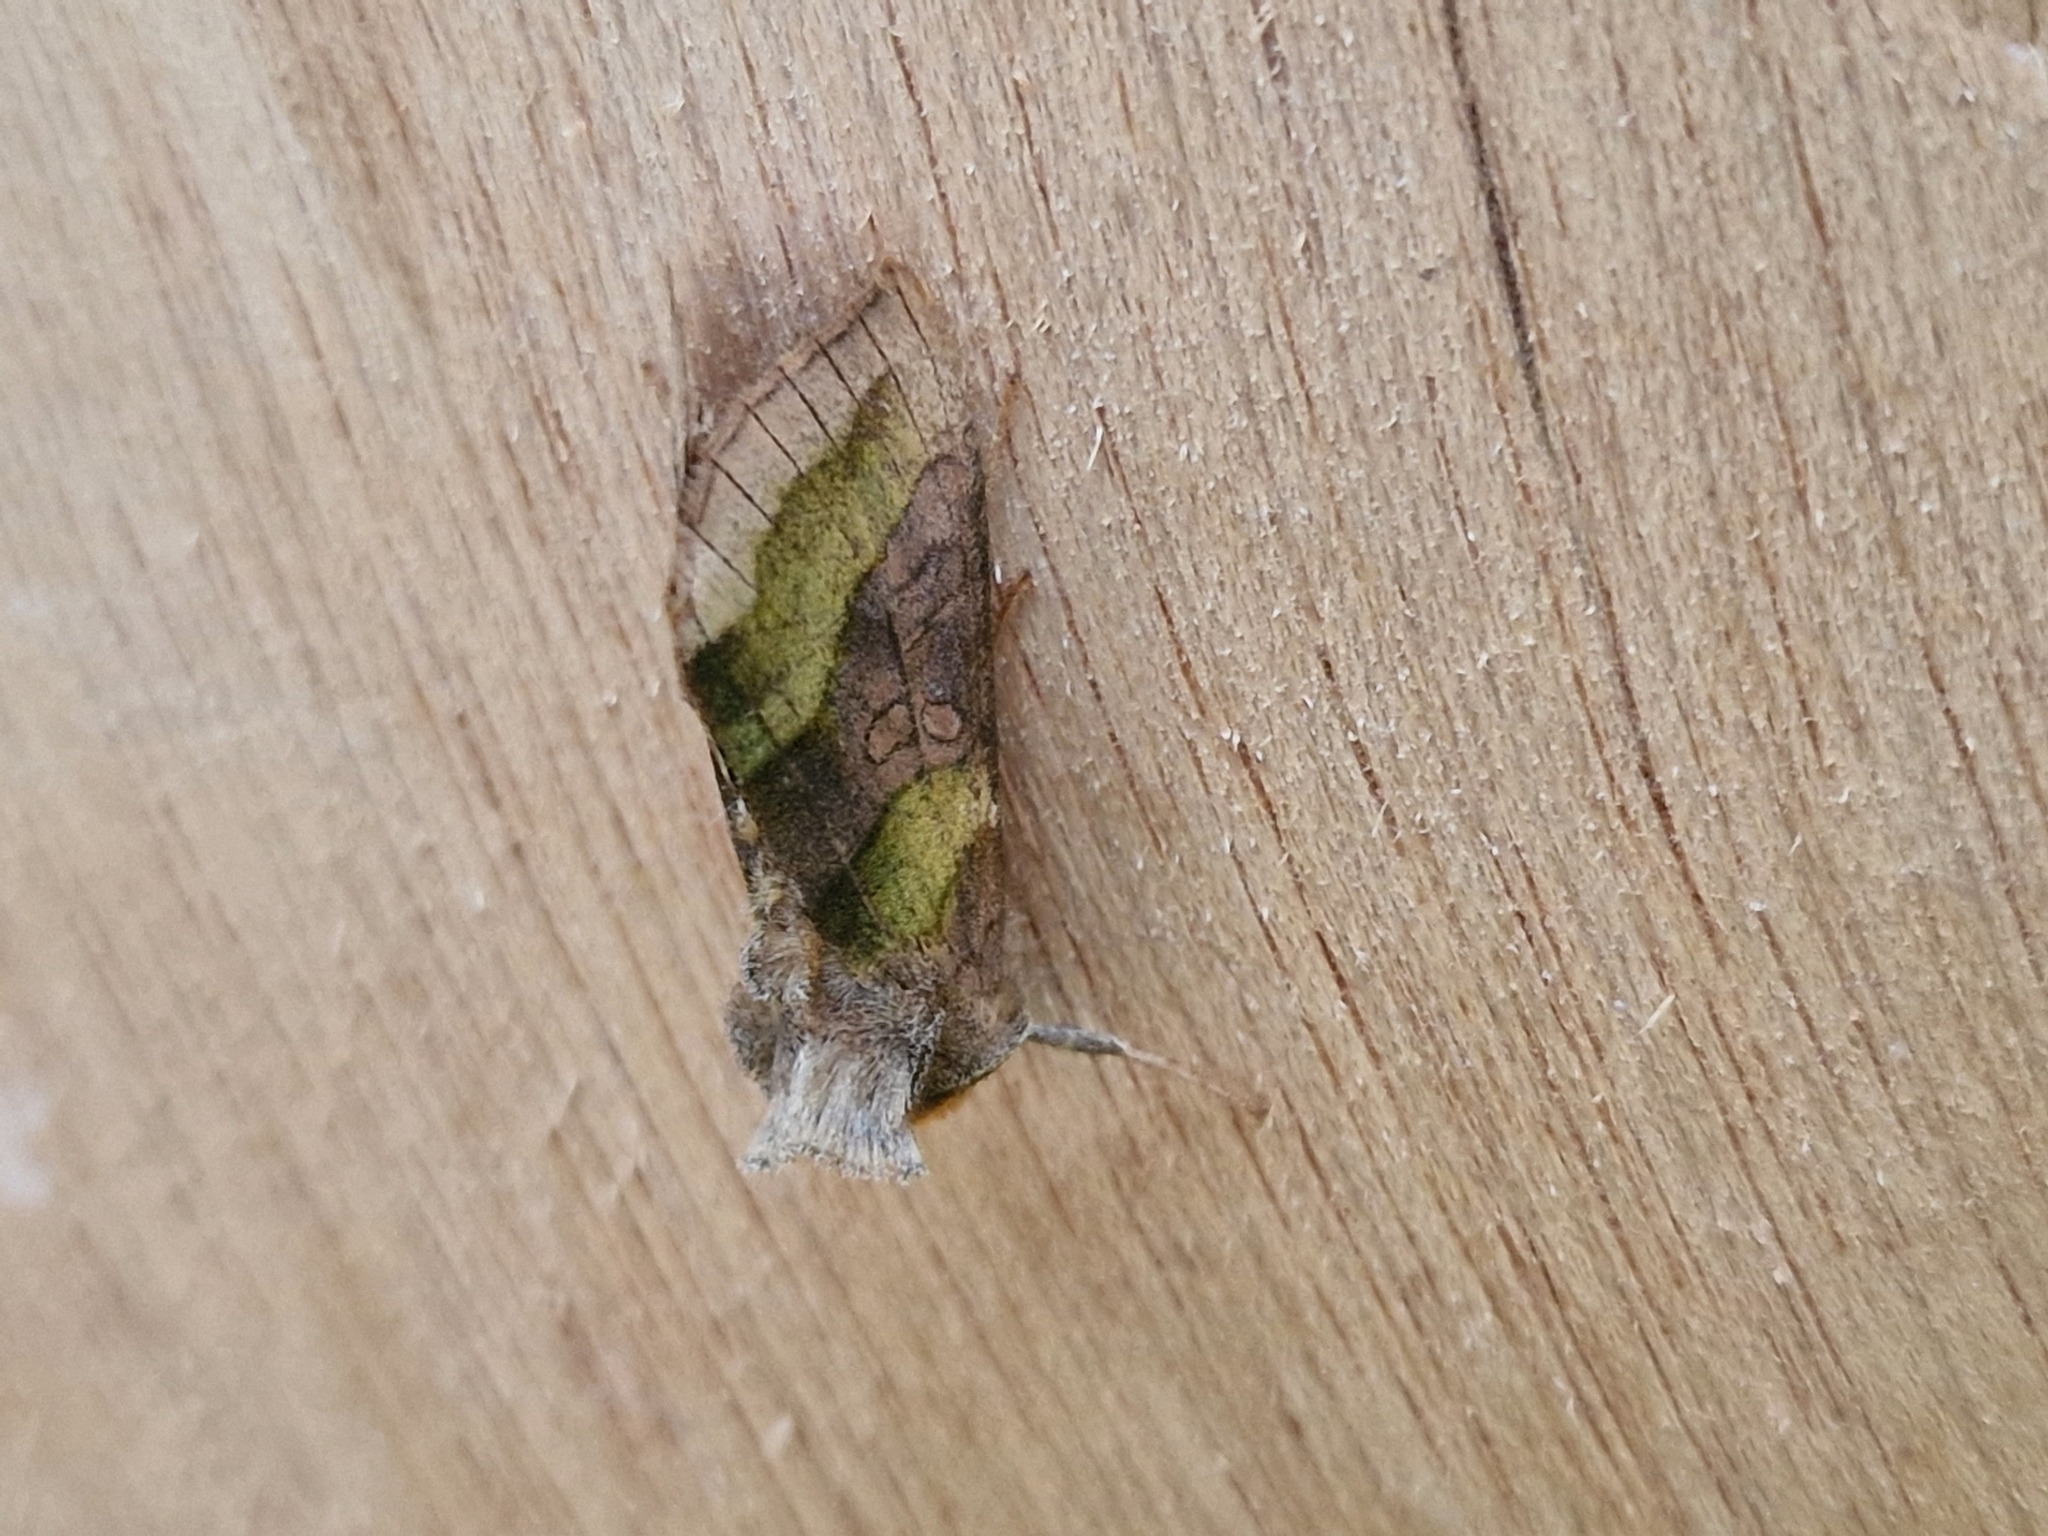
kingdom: Animalia
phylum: Arthropoda
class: Insecta
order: Lepidoptera
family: Noctuidae
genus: Diachrysia
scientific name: Diachrysia chrysitis
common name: Burnished brass
